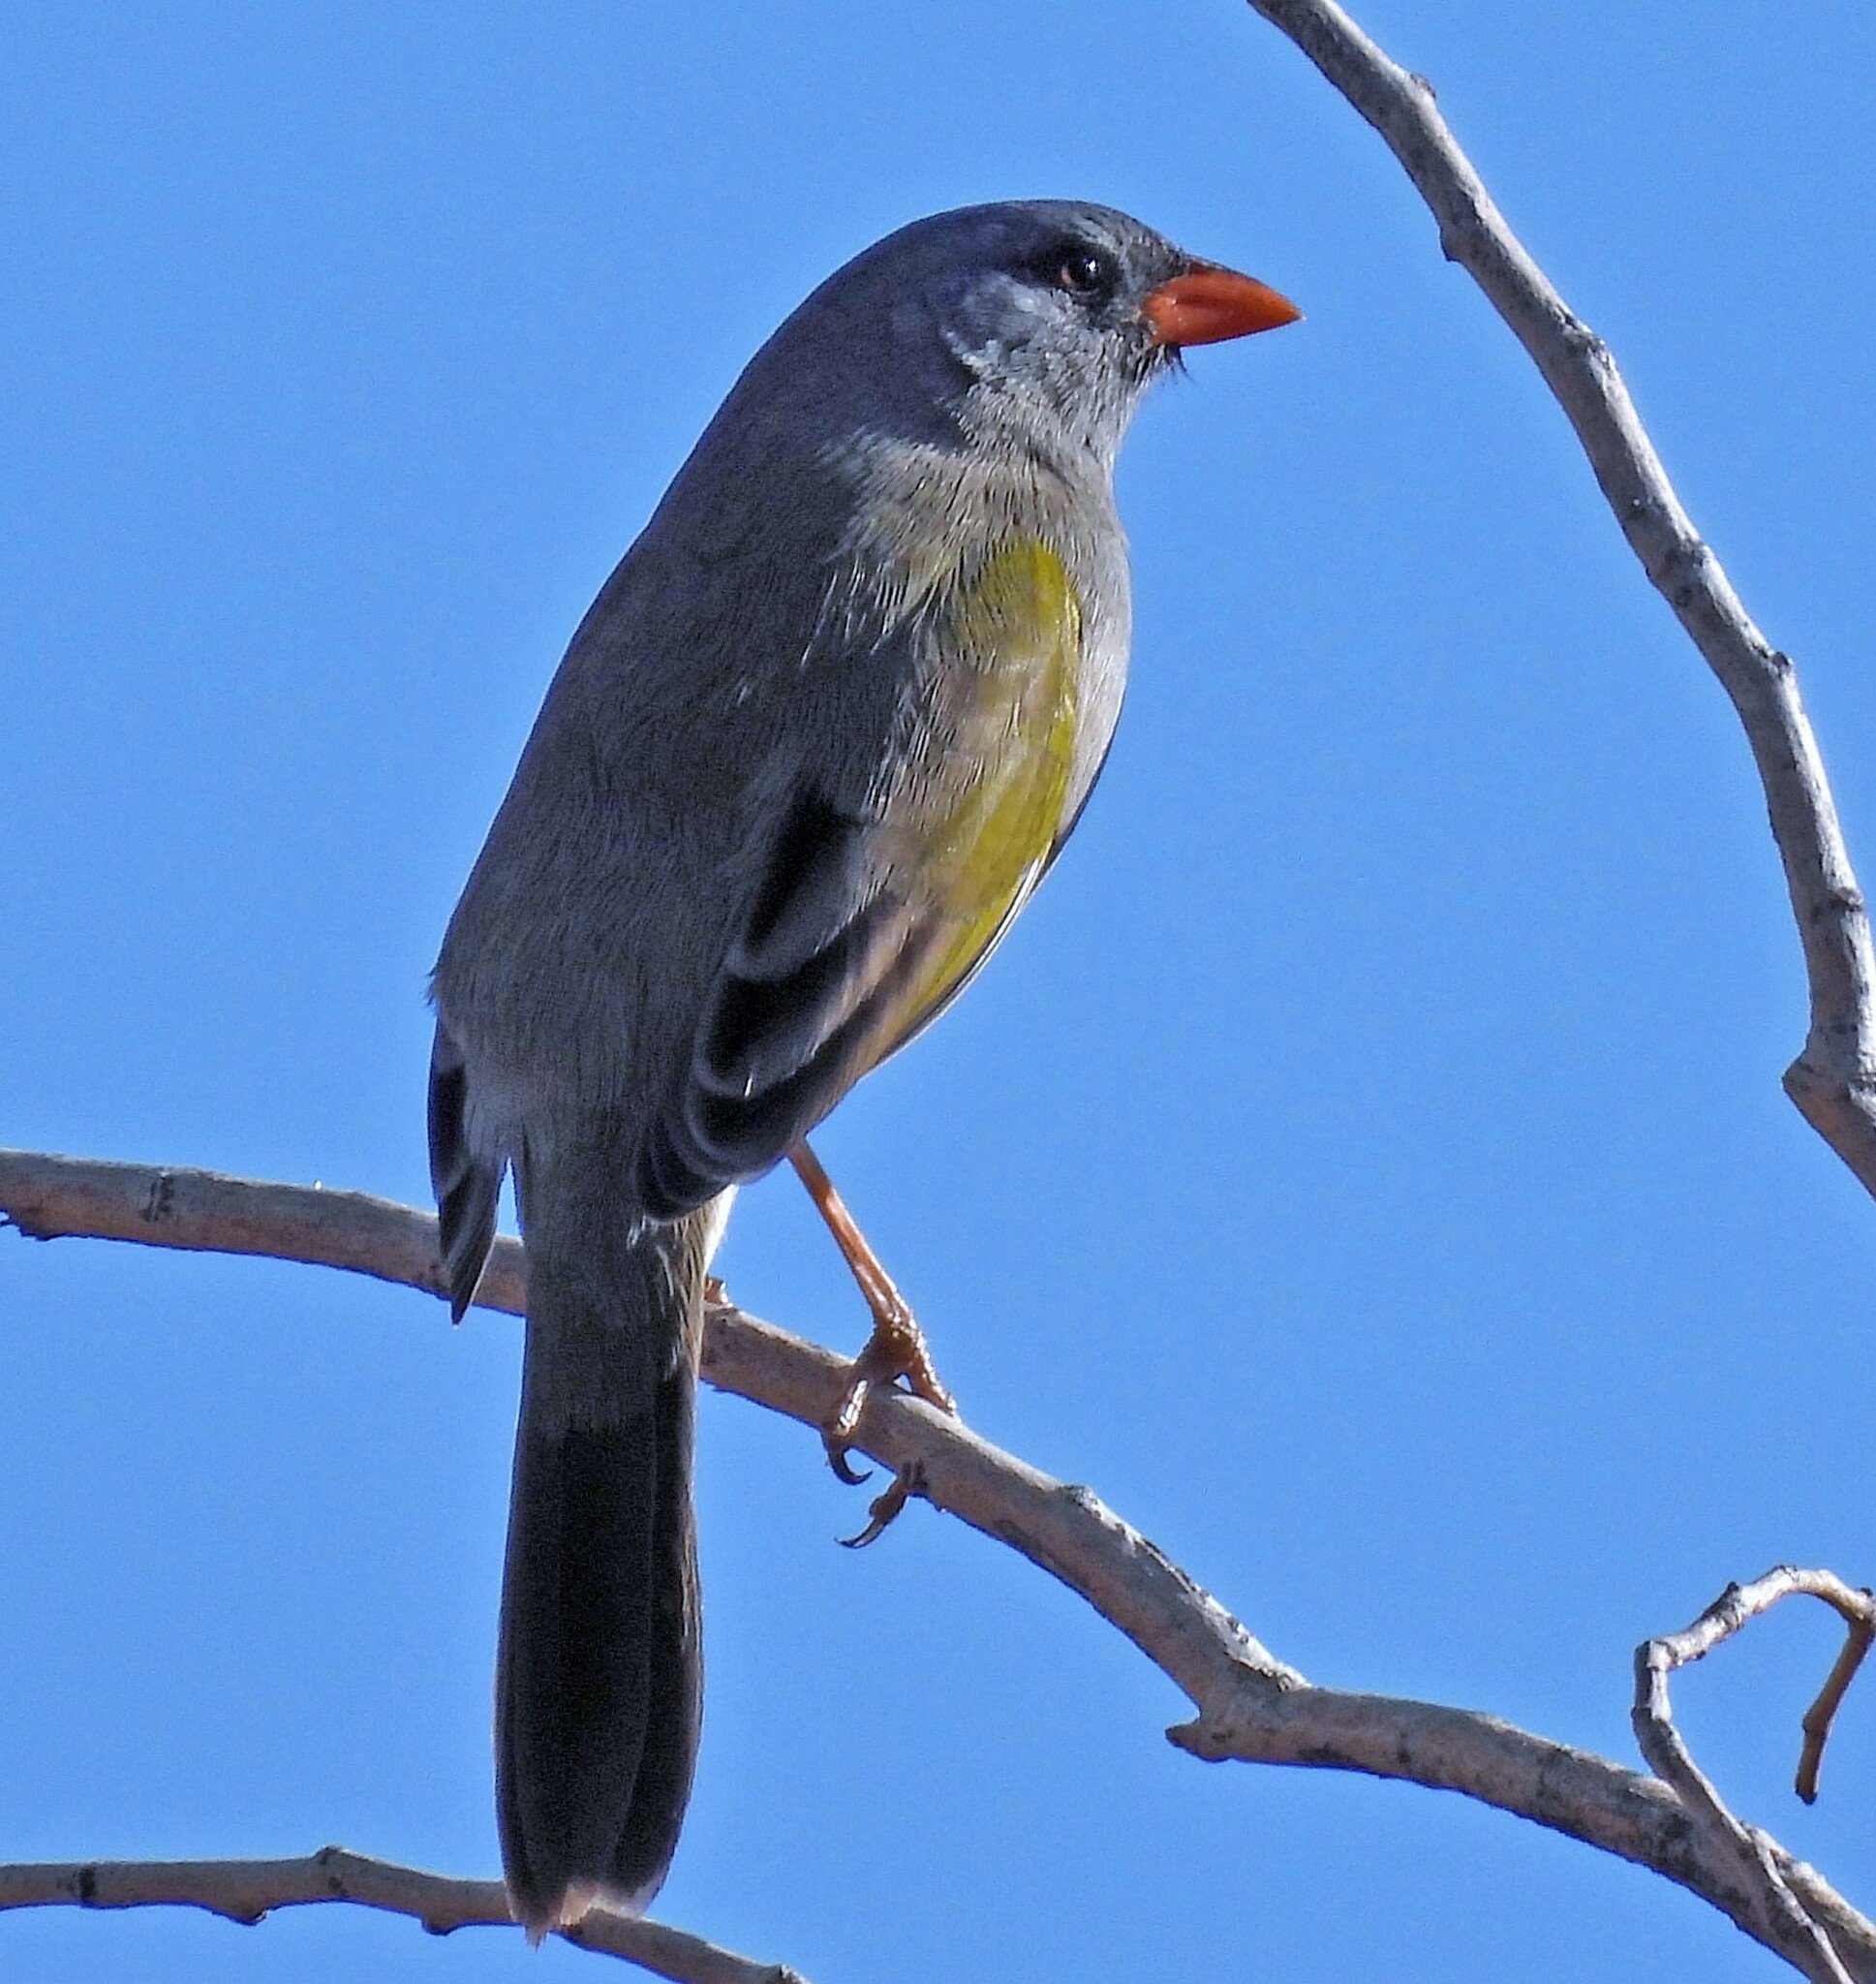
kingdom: Animalia
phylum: Chordata
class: Aves
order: Passeriformes
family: Thraupidae
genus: Embernagra
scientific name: Embernagra platensis
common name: Pampa finch
